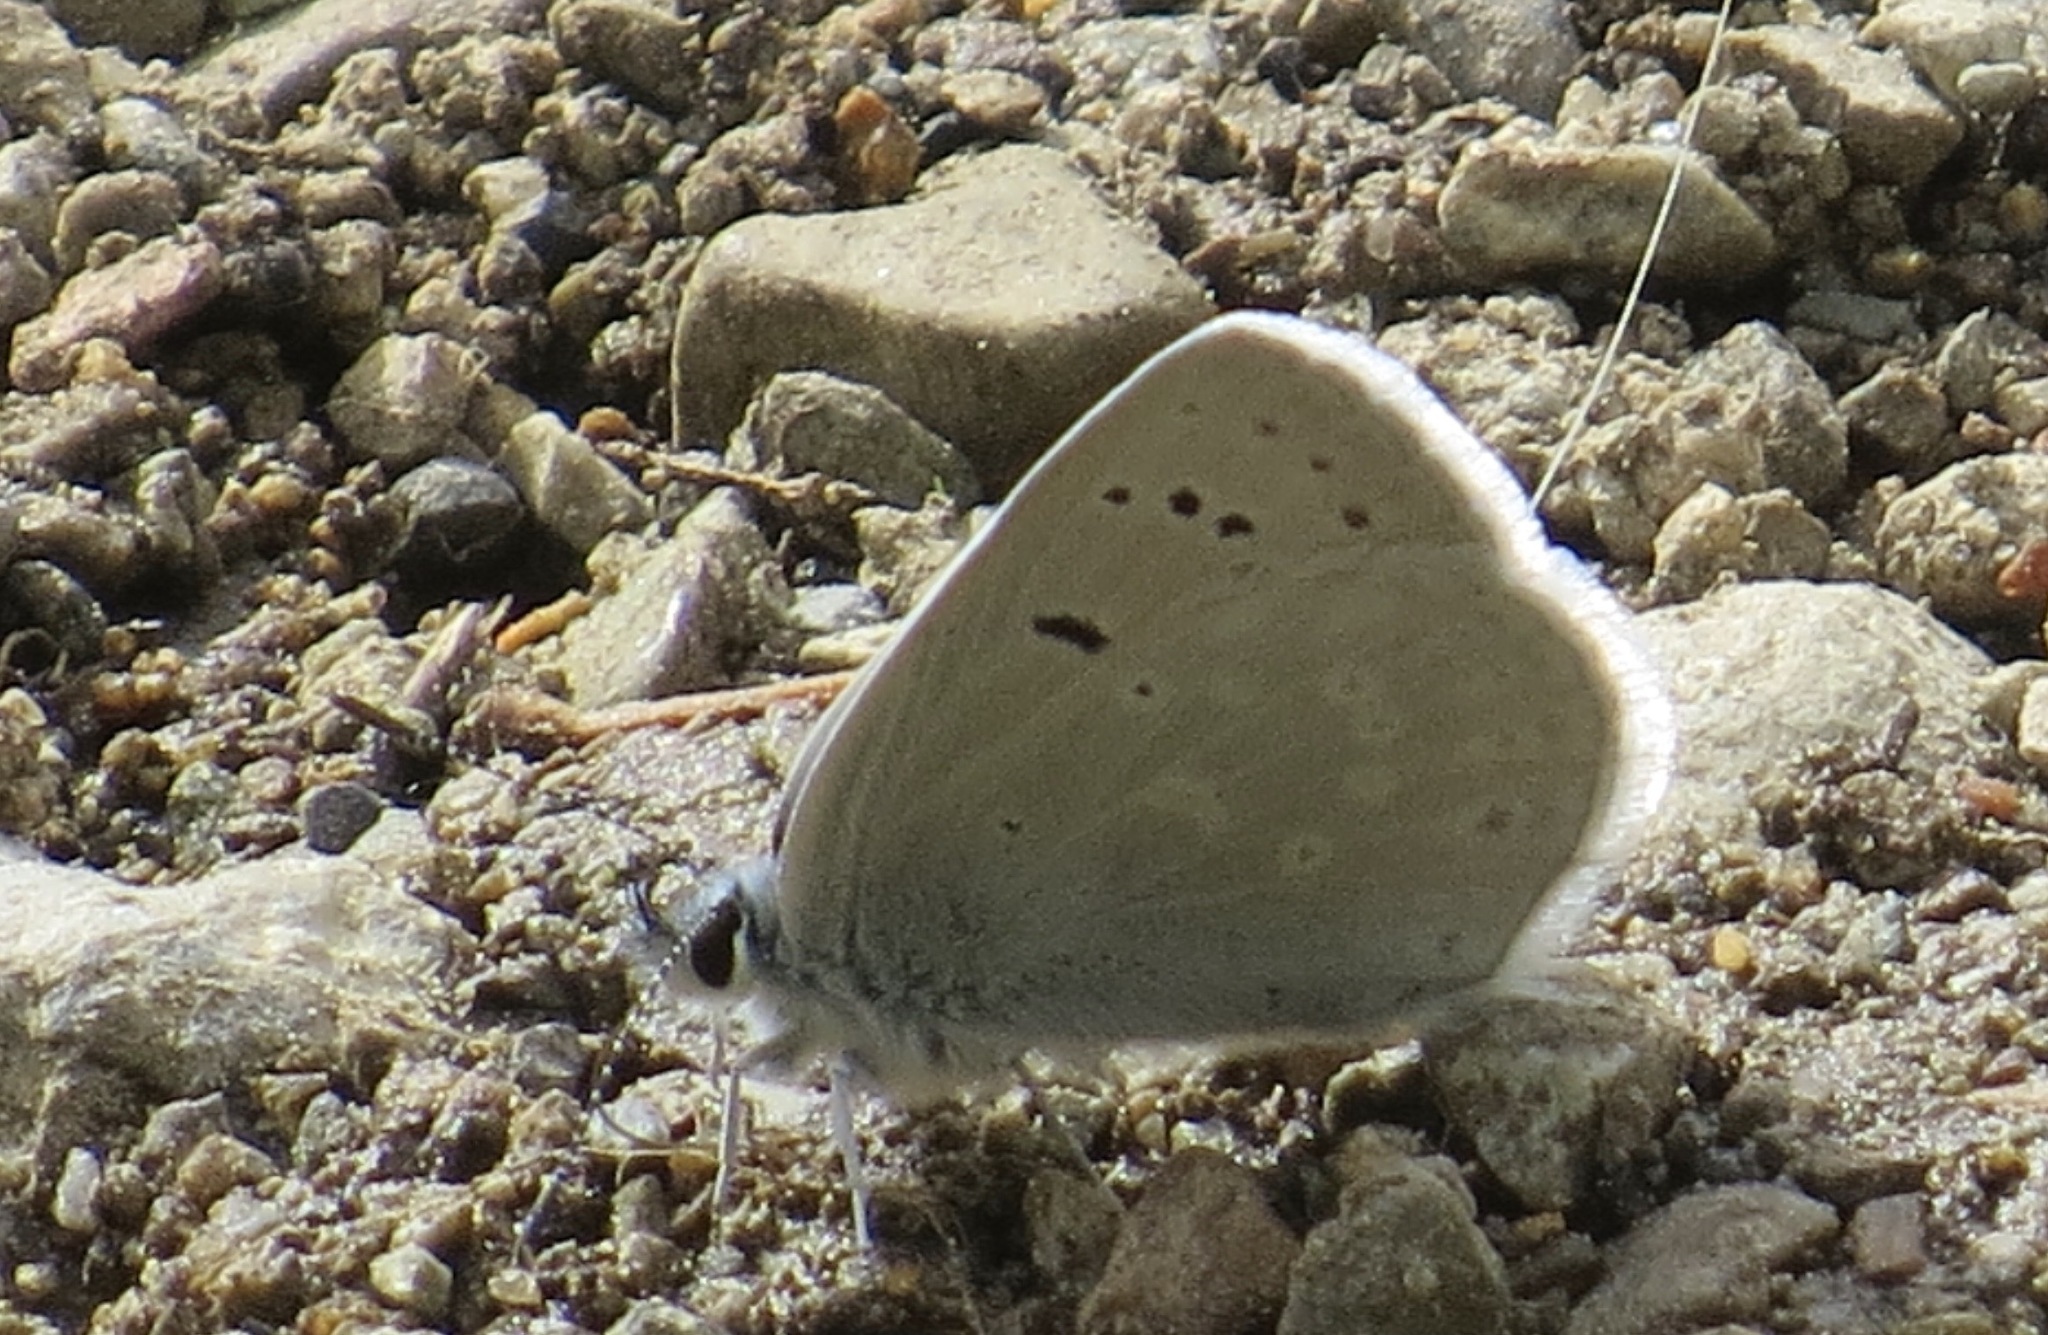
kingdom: Animalia
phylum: Arthropoda
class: Insecta
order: Lepidoptera
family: Lycaenidae
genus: Icaricia
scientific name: Icaricia icarioides
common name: Boisduval's blue
